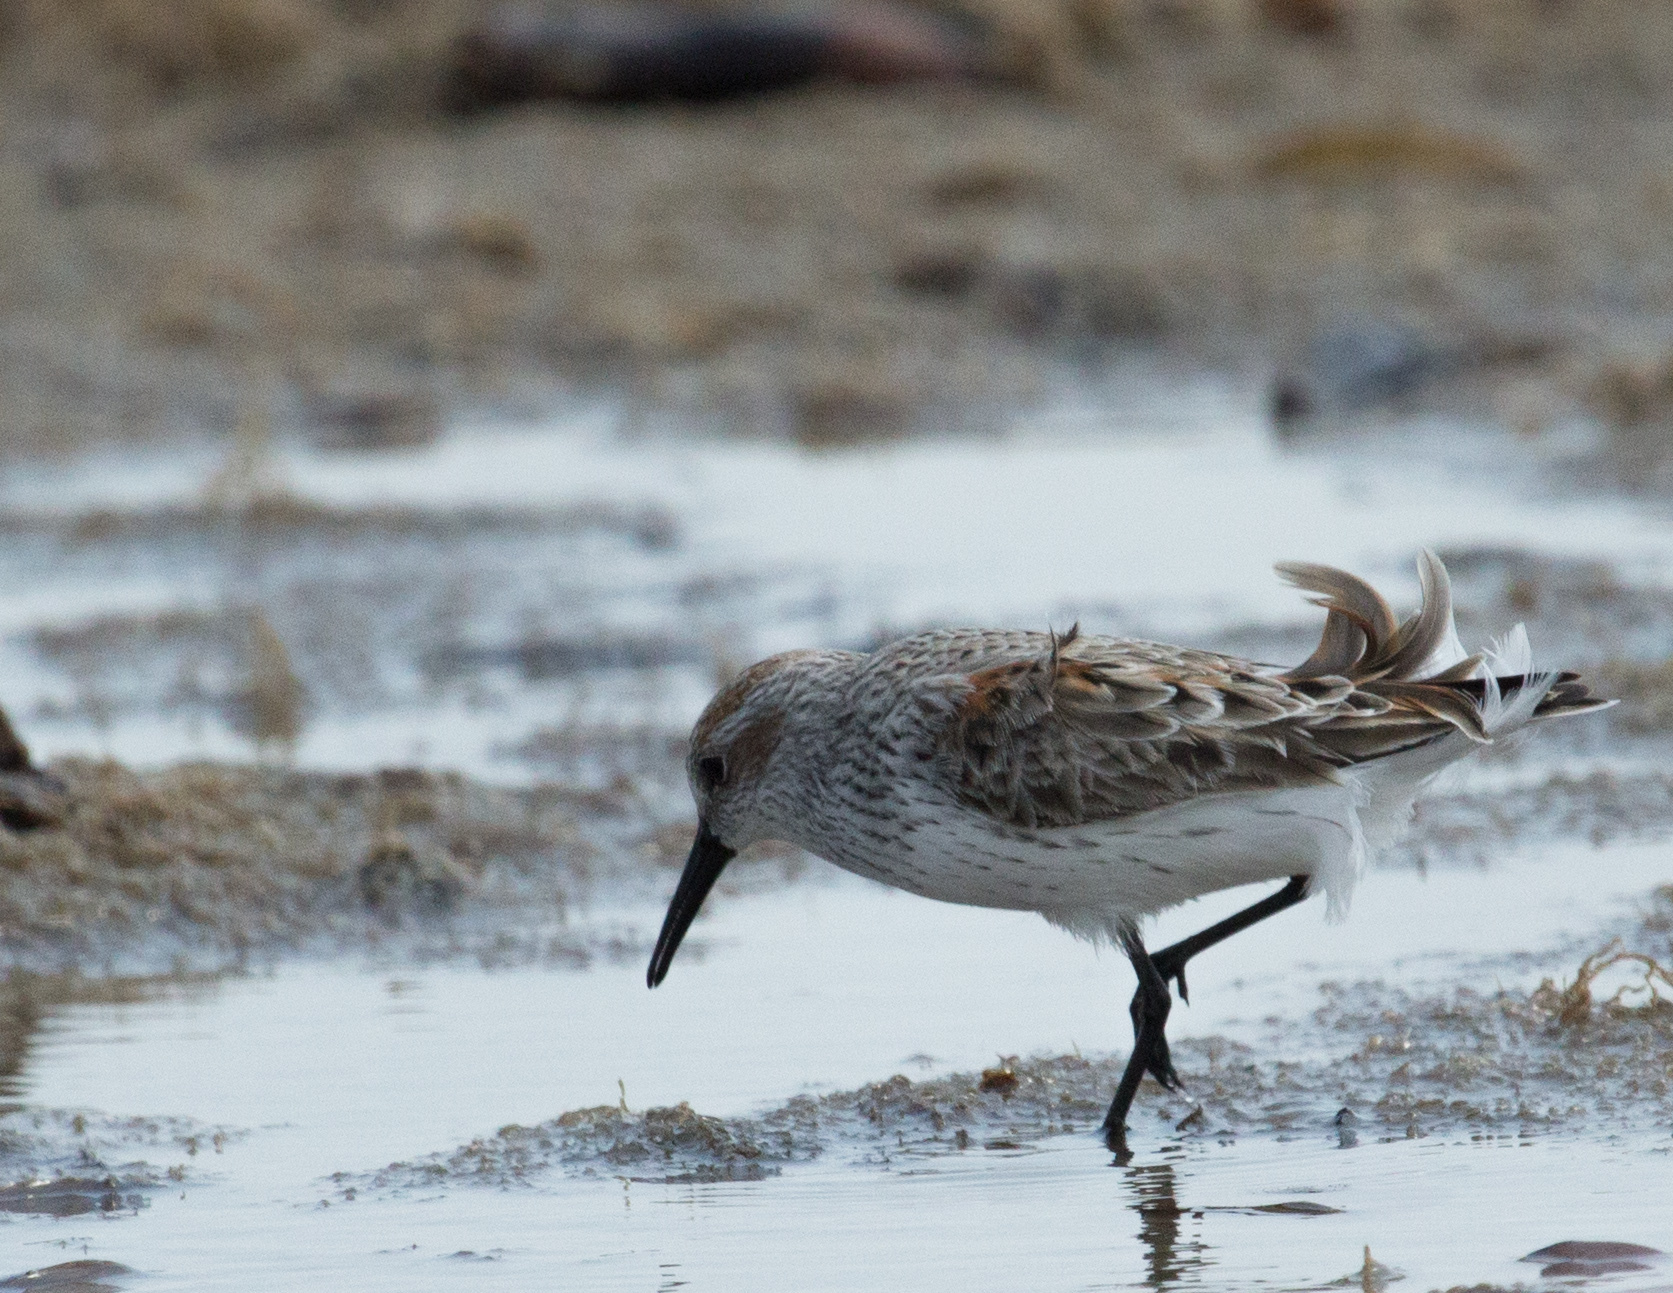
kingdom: Animalia
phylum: Chordata
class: Aves
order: Charadriiformes
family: Scolopacidae
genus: Calidris
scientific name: Calidris mauri
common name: Western sandpiper
